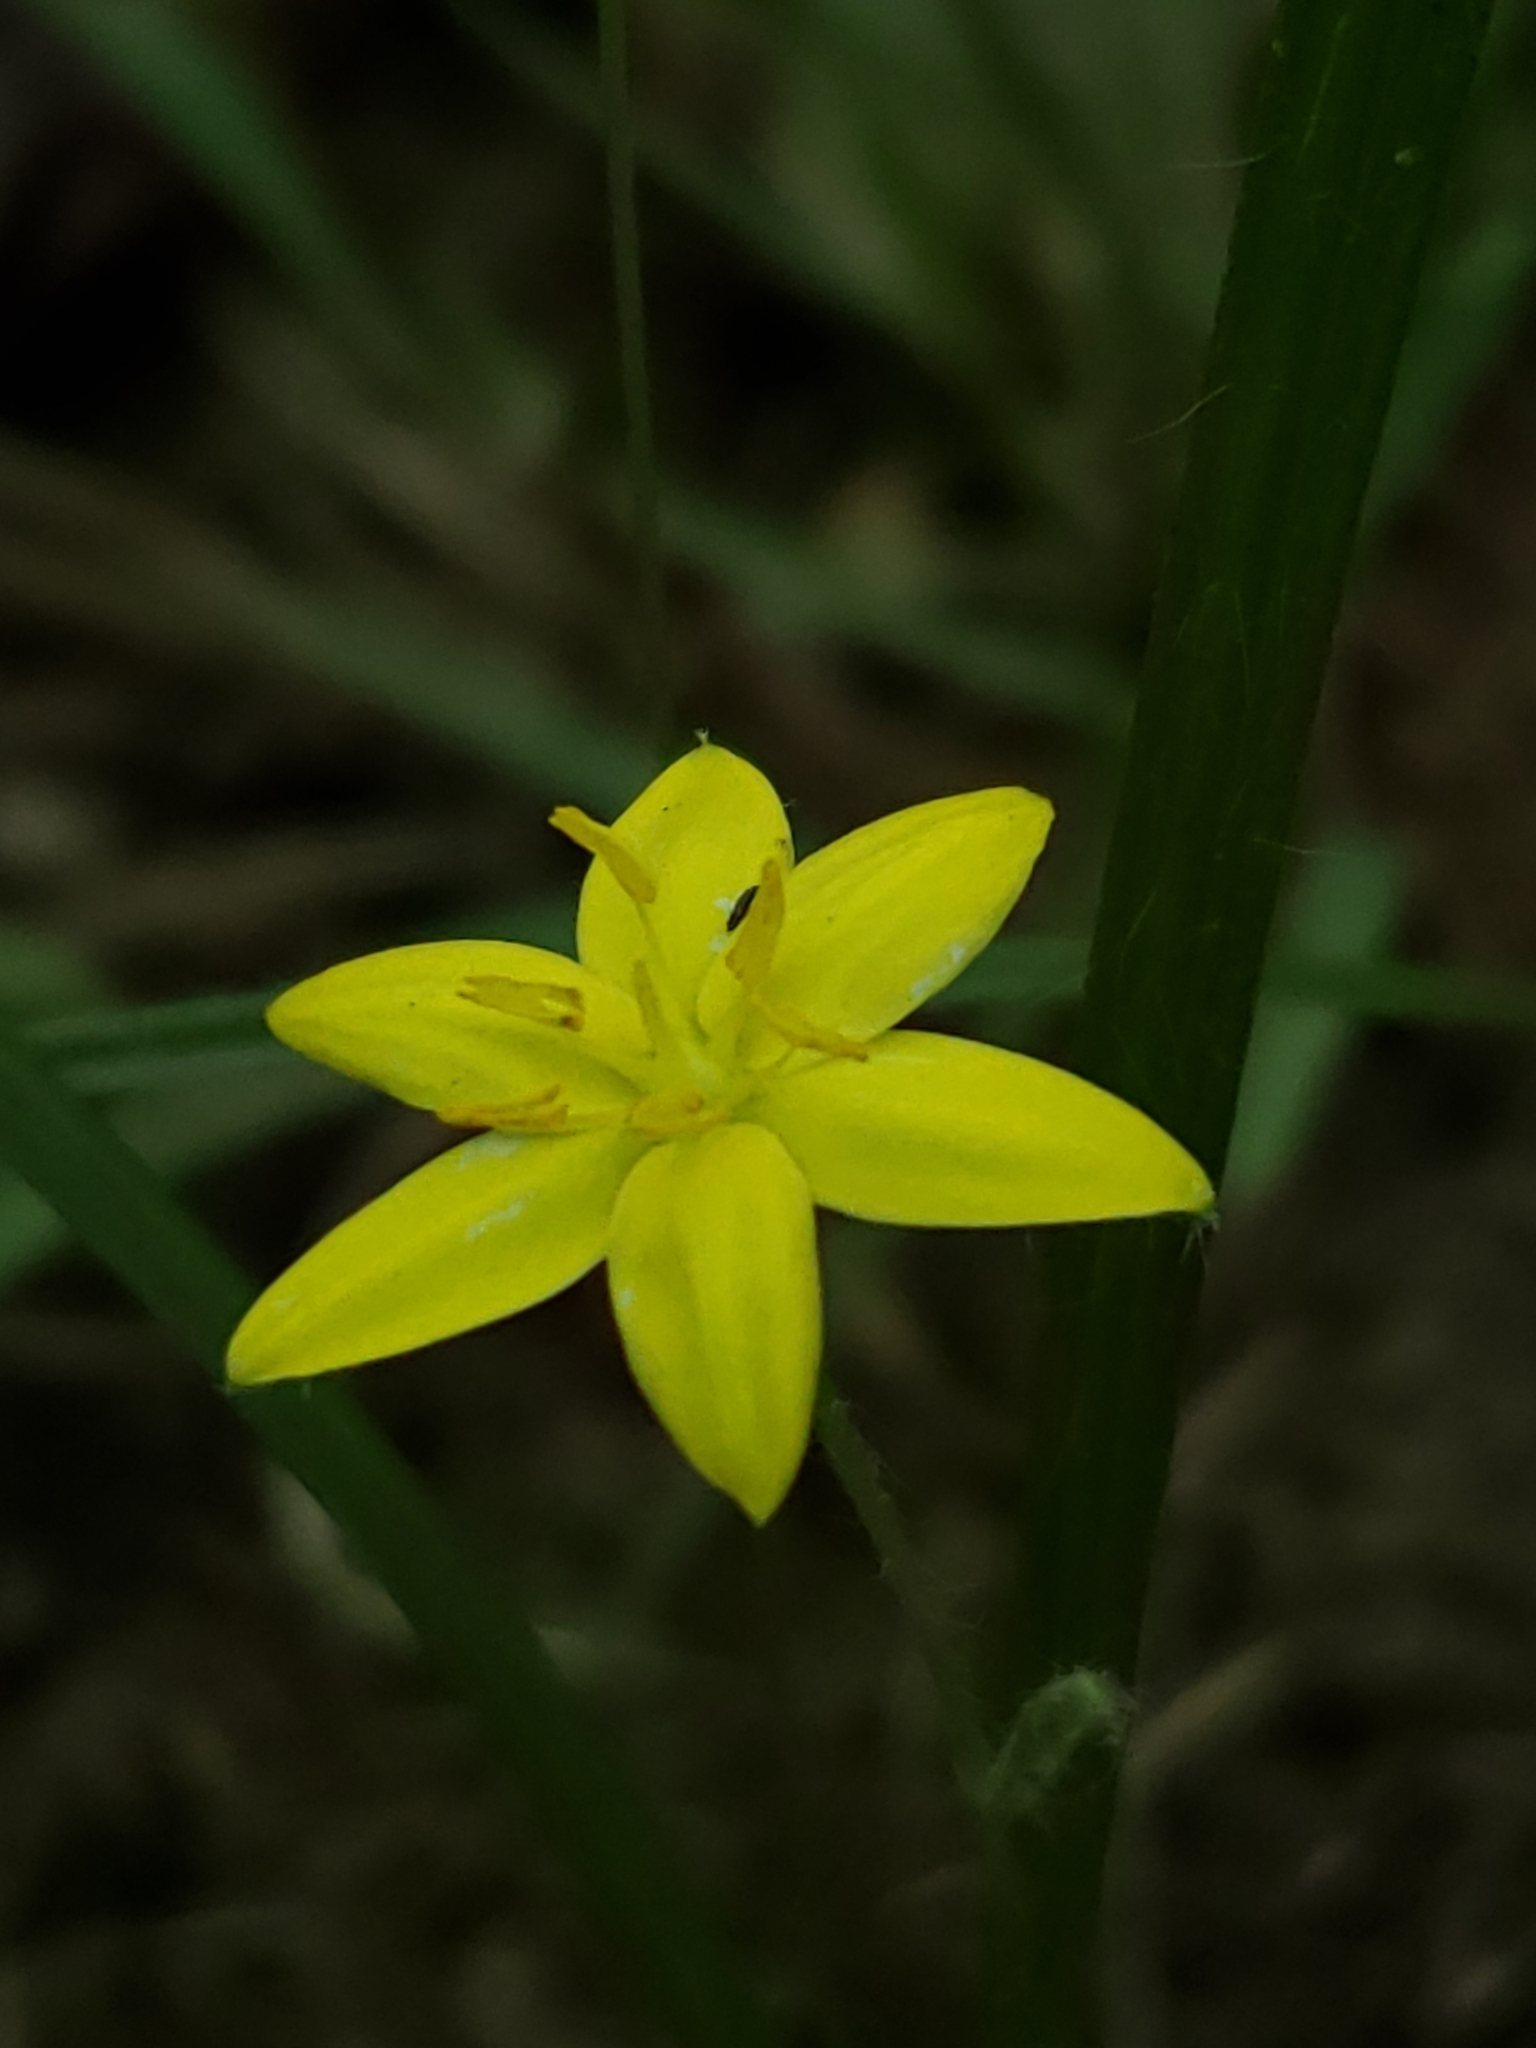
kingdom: Plantae
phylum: Tracheophyta
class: Liliopsida
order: Asparagales
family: Hypoxidaceae
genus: Hypoxis
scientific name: Hypoxis hirsuta
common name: Common goldstar
